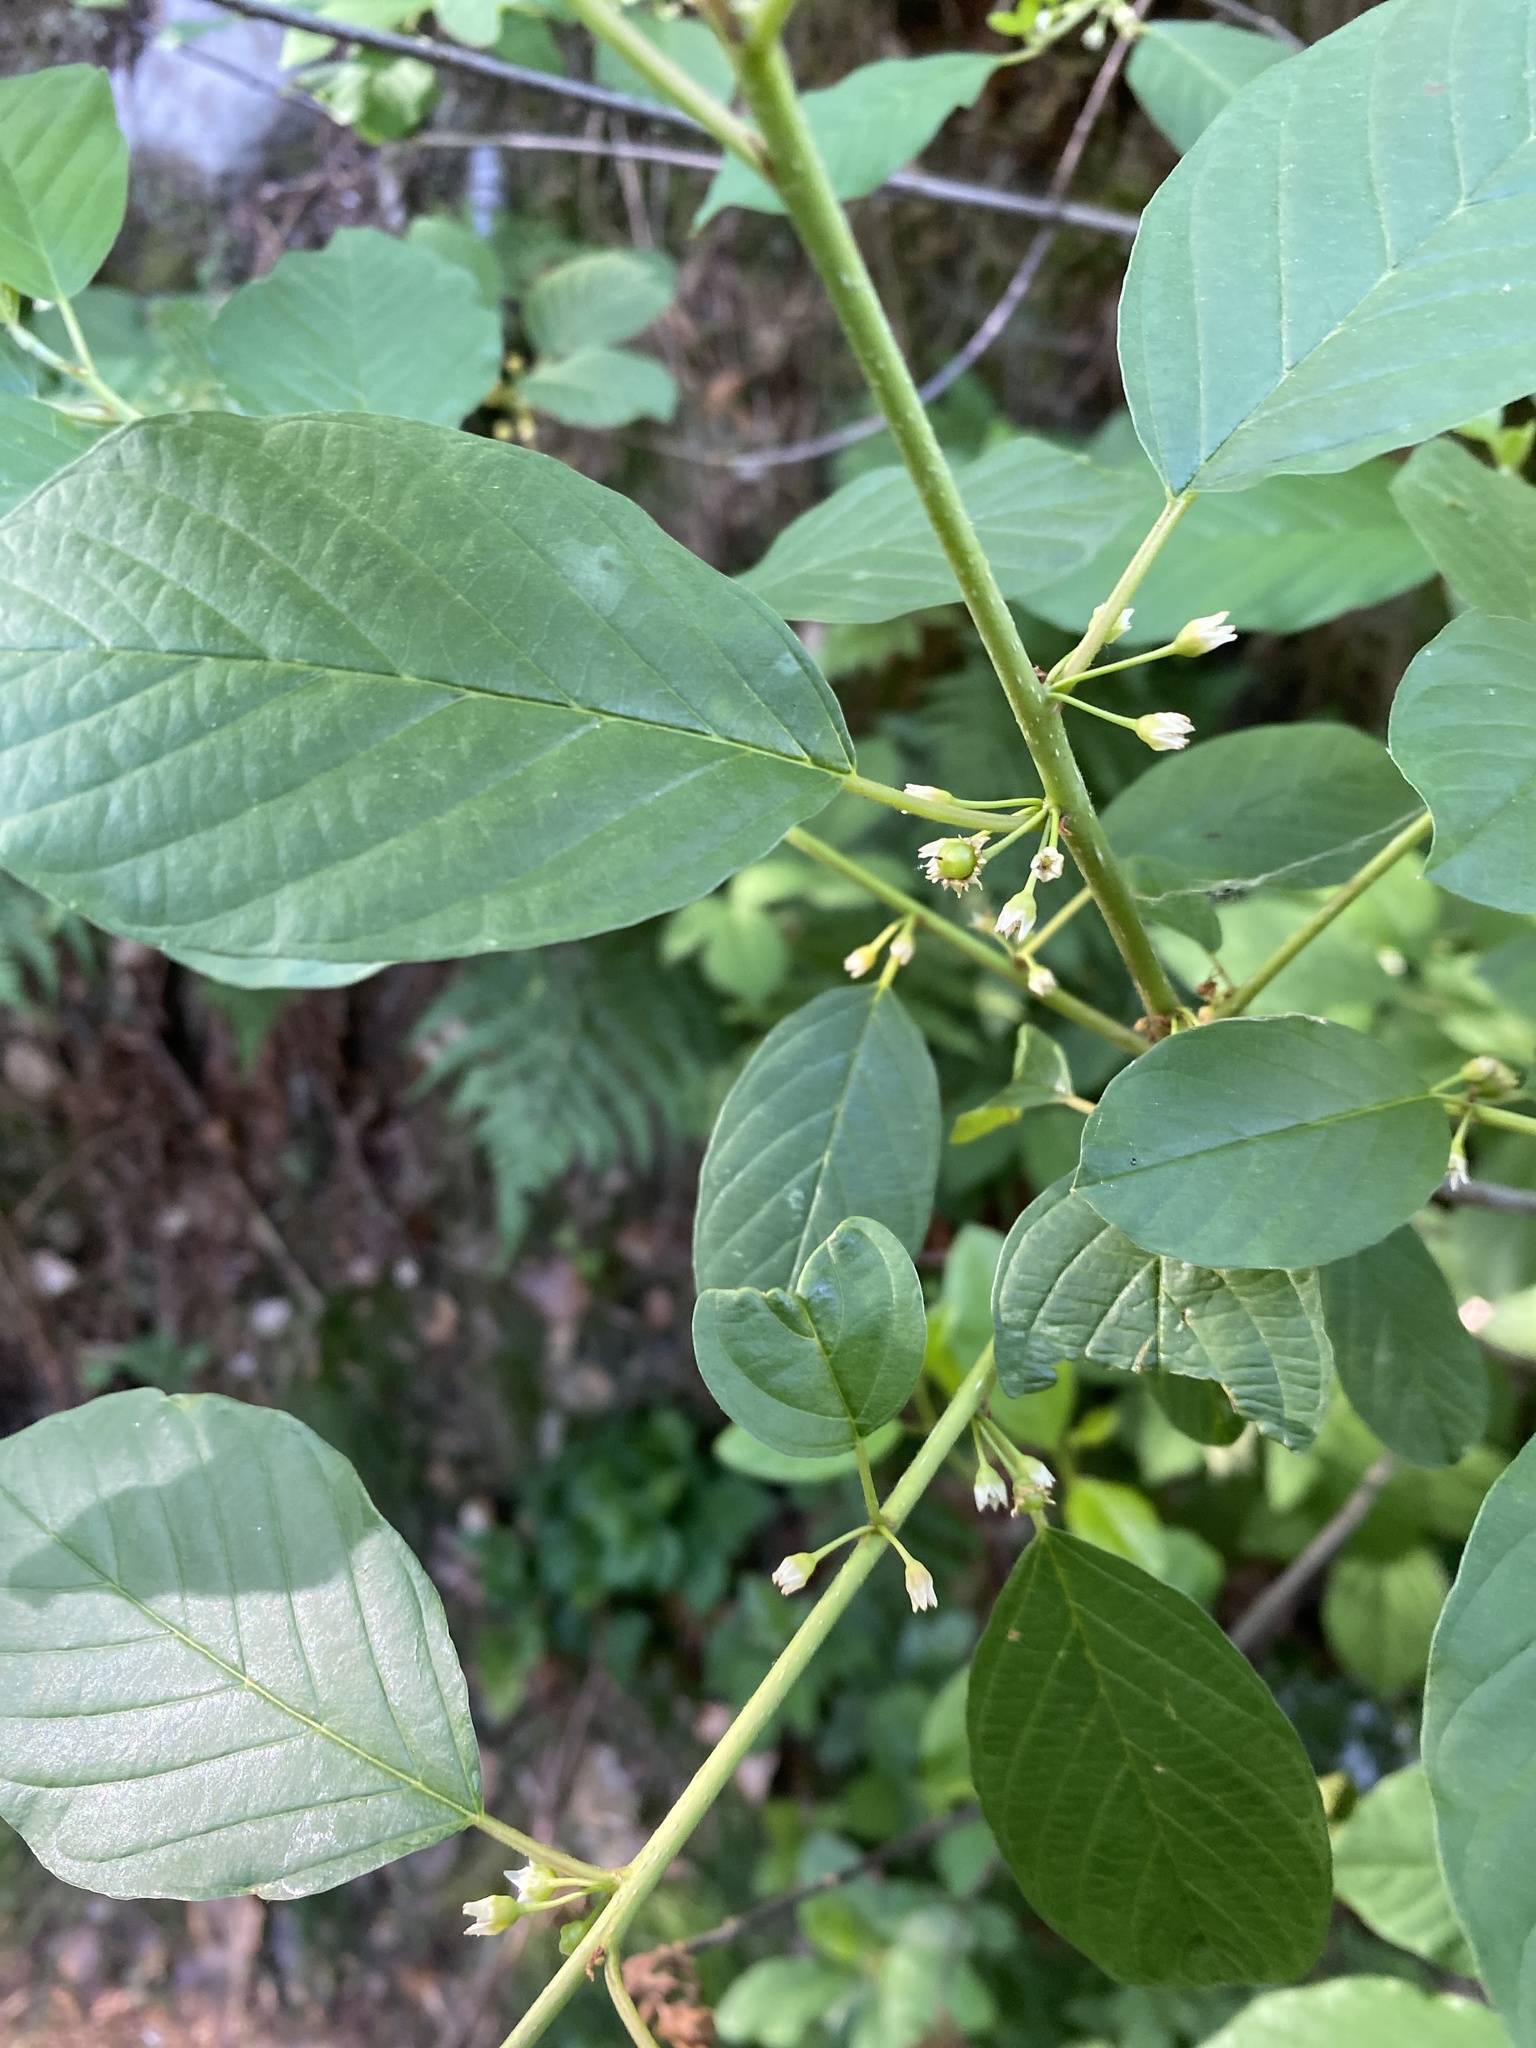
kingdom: Plantae
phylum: Tracheophyta
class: Magnoliopsida
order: Rosales
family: Rhamnaceae
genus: Frangula
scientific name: Frangula alnus
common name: Alder buckthorn
